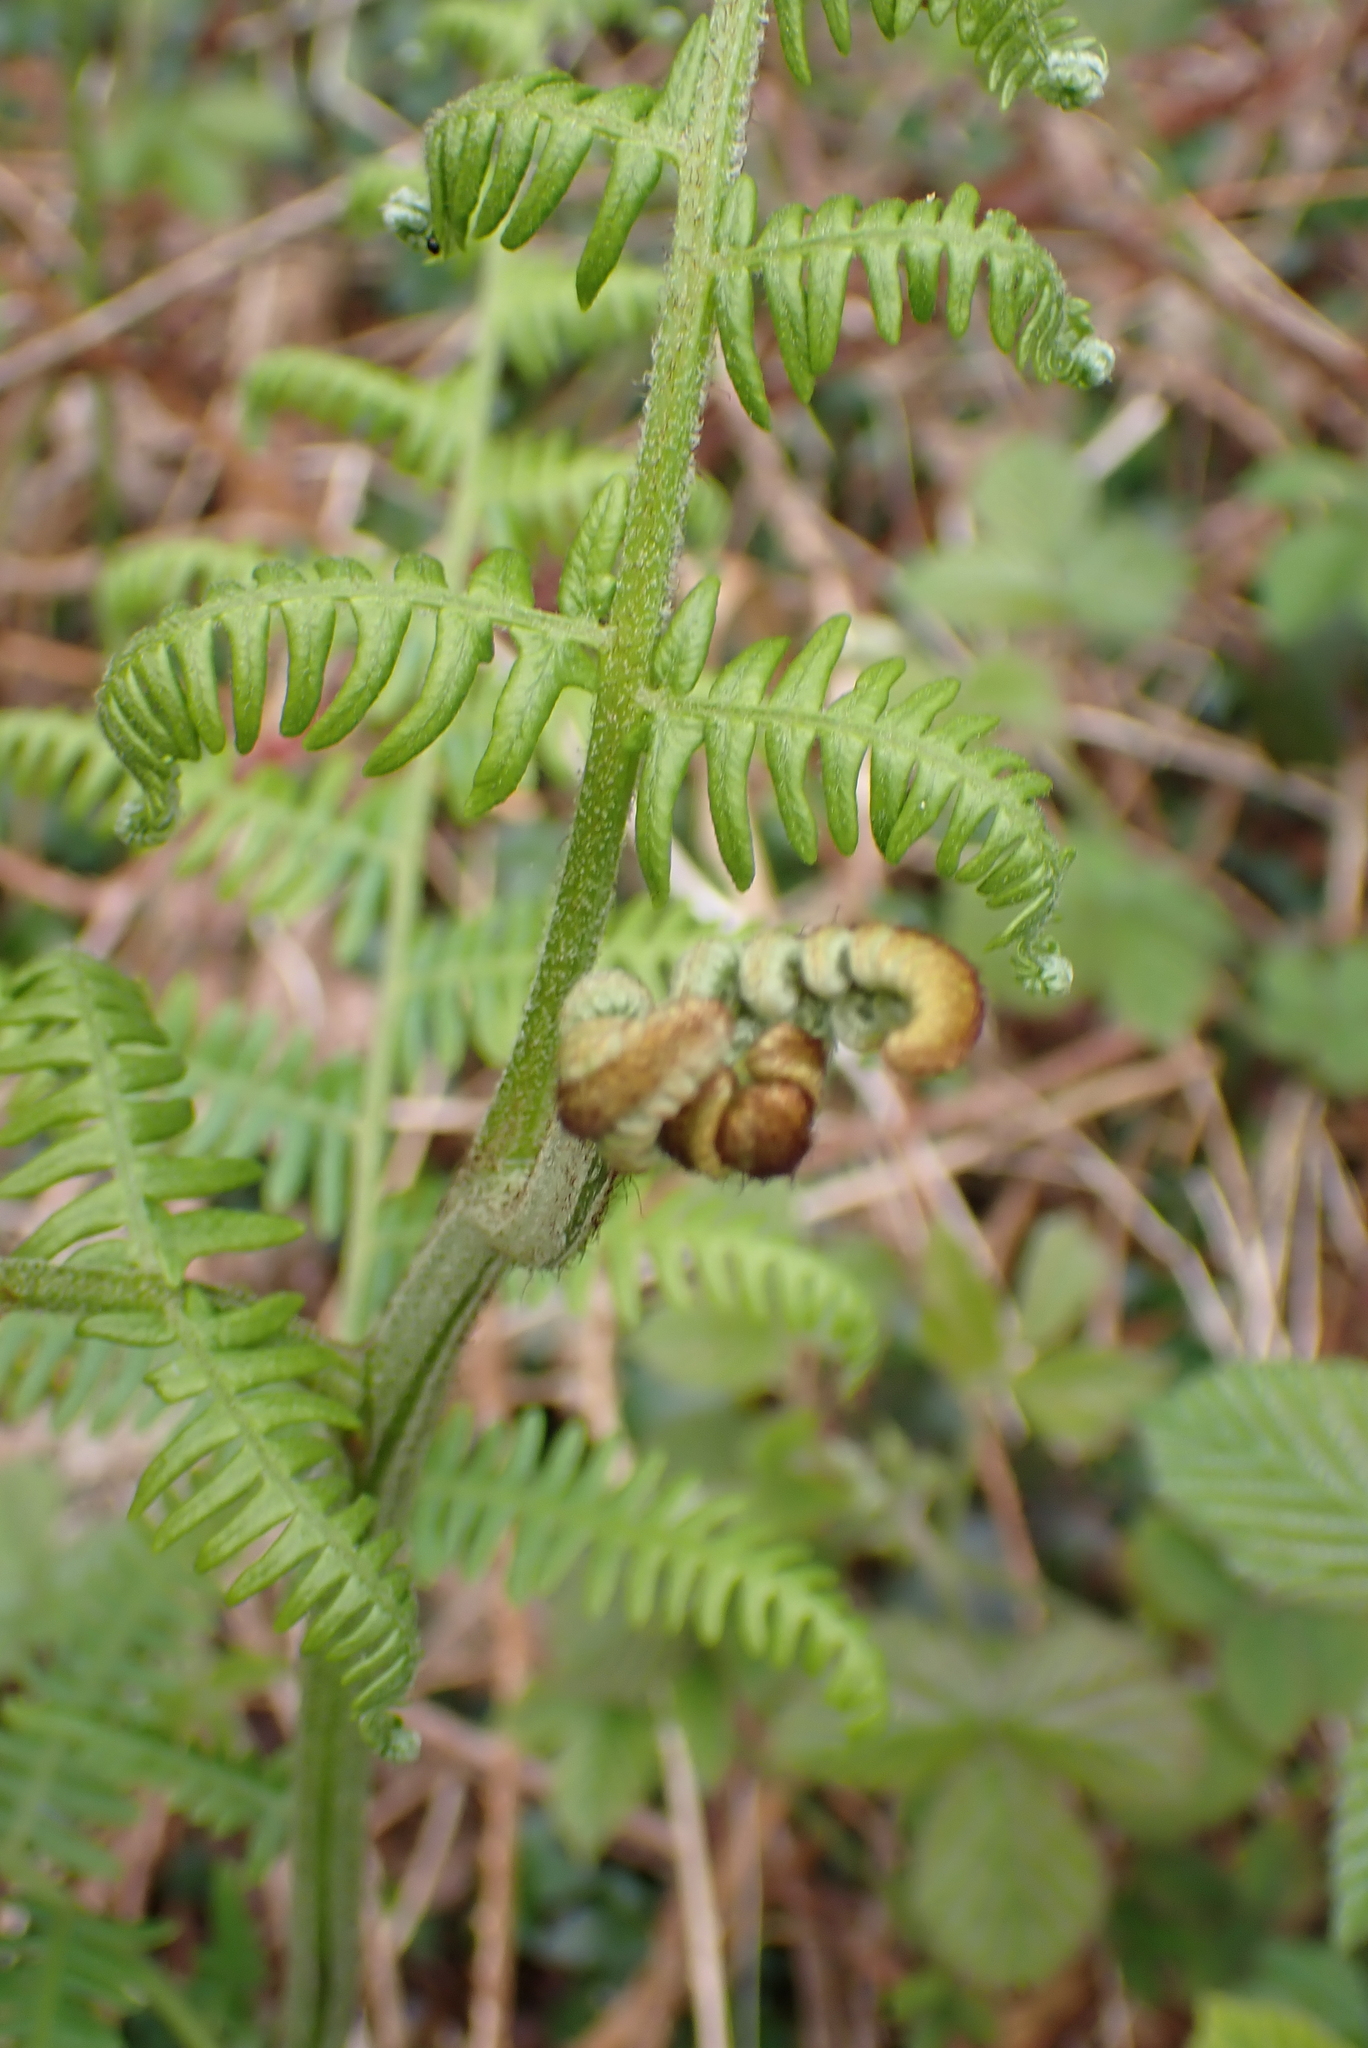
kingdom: Plantae
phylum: Tracheophyta
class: Polypodiopsida
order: Polypodiales
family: Dennstaedtiaceae
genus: Pteridium
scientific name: Pteridium aquilinum
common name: Bracken
